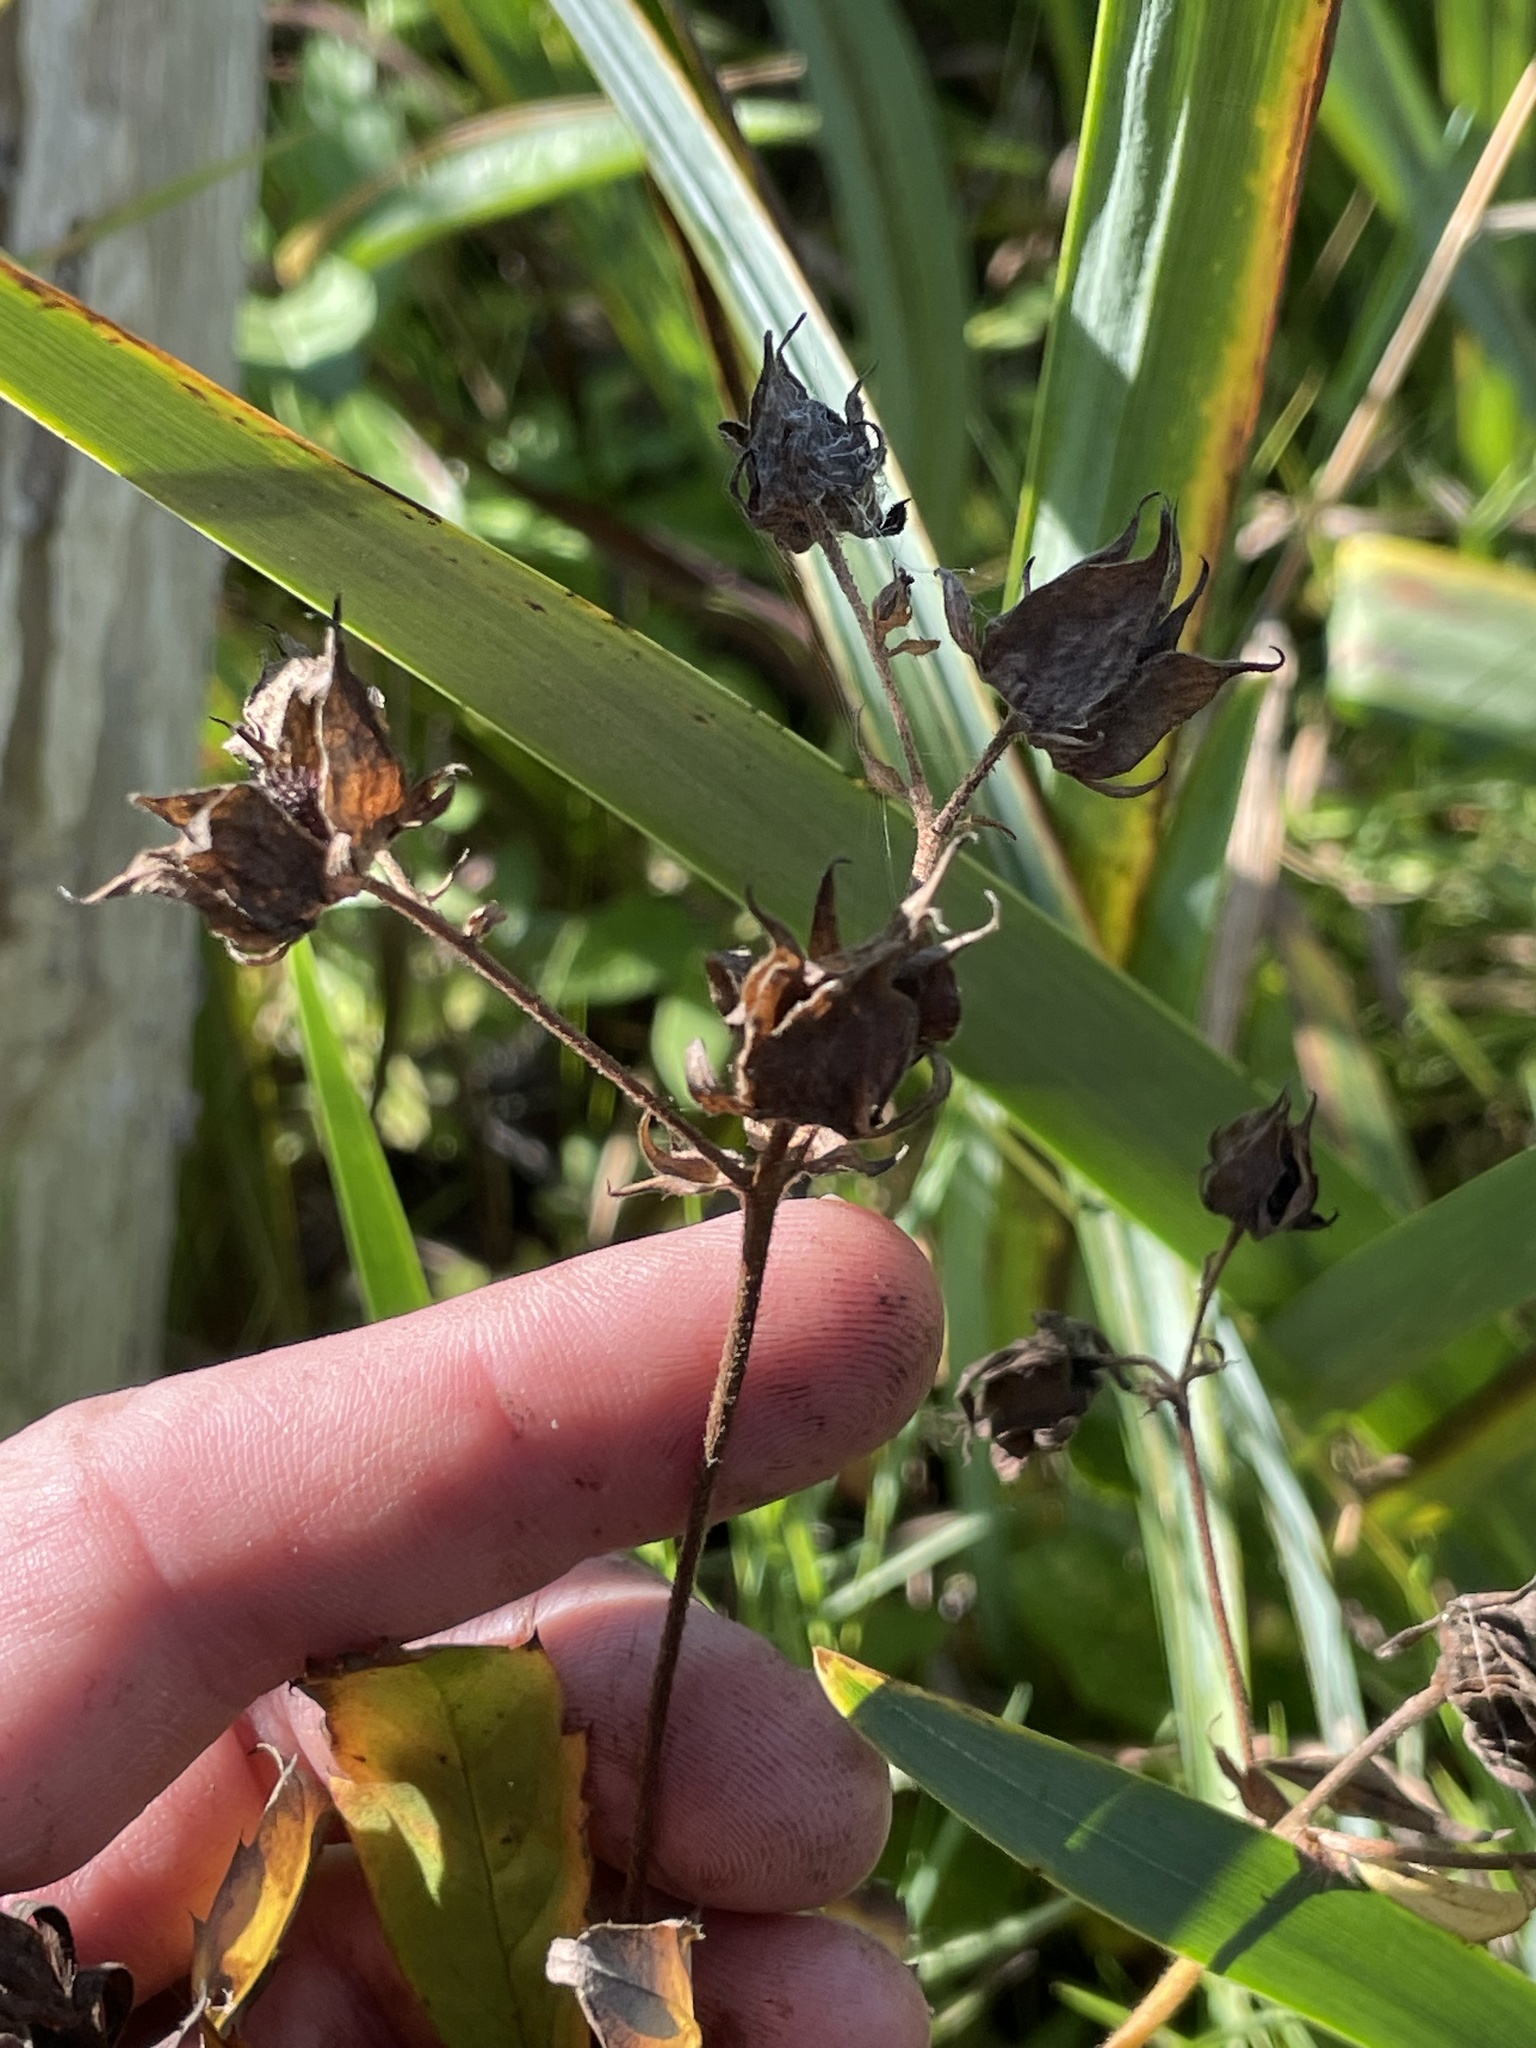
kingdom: Plantae
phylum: Tracheophyta
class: Magnoliopsida
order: Rosales
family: Rosaceae
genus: Comarum
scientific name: Comarum palustre
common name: Marsh cinquefoil
